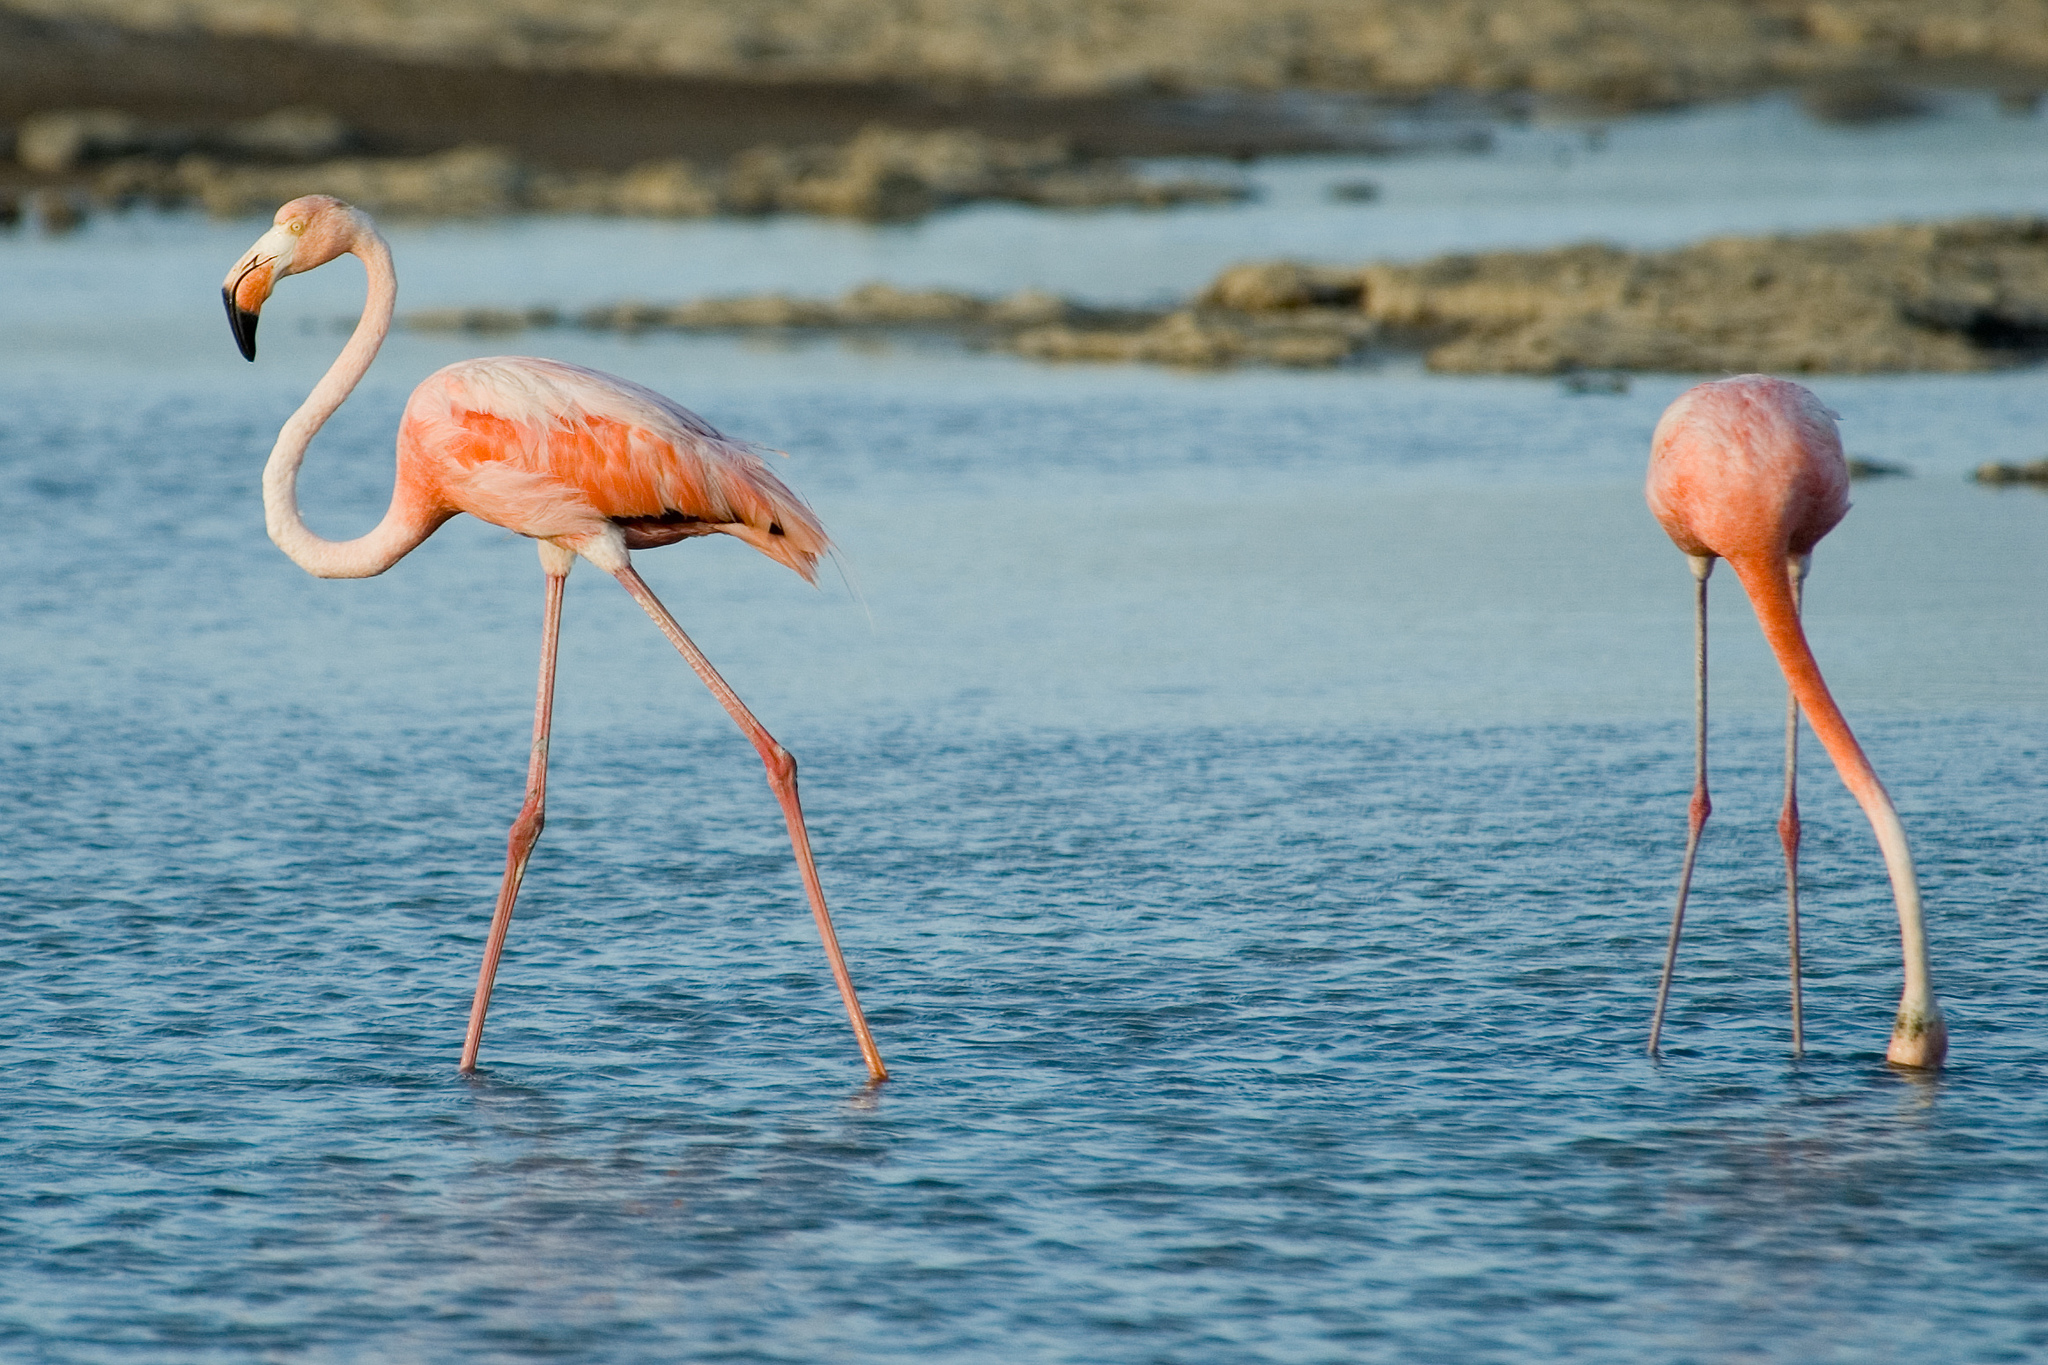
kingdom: Animalia
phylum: Chordata
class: Aves
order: Phoenicopteriformes
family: Phoenicopteridae
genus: Phoenicopterus
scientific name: Phoenicopterus ruber
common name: American flamingo
